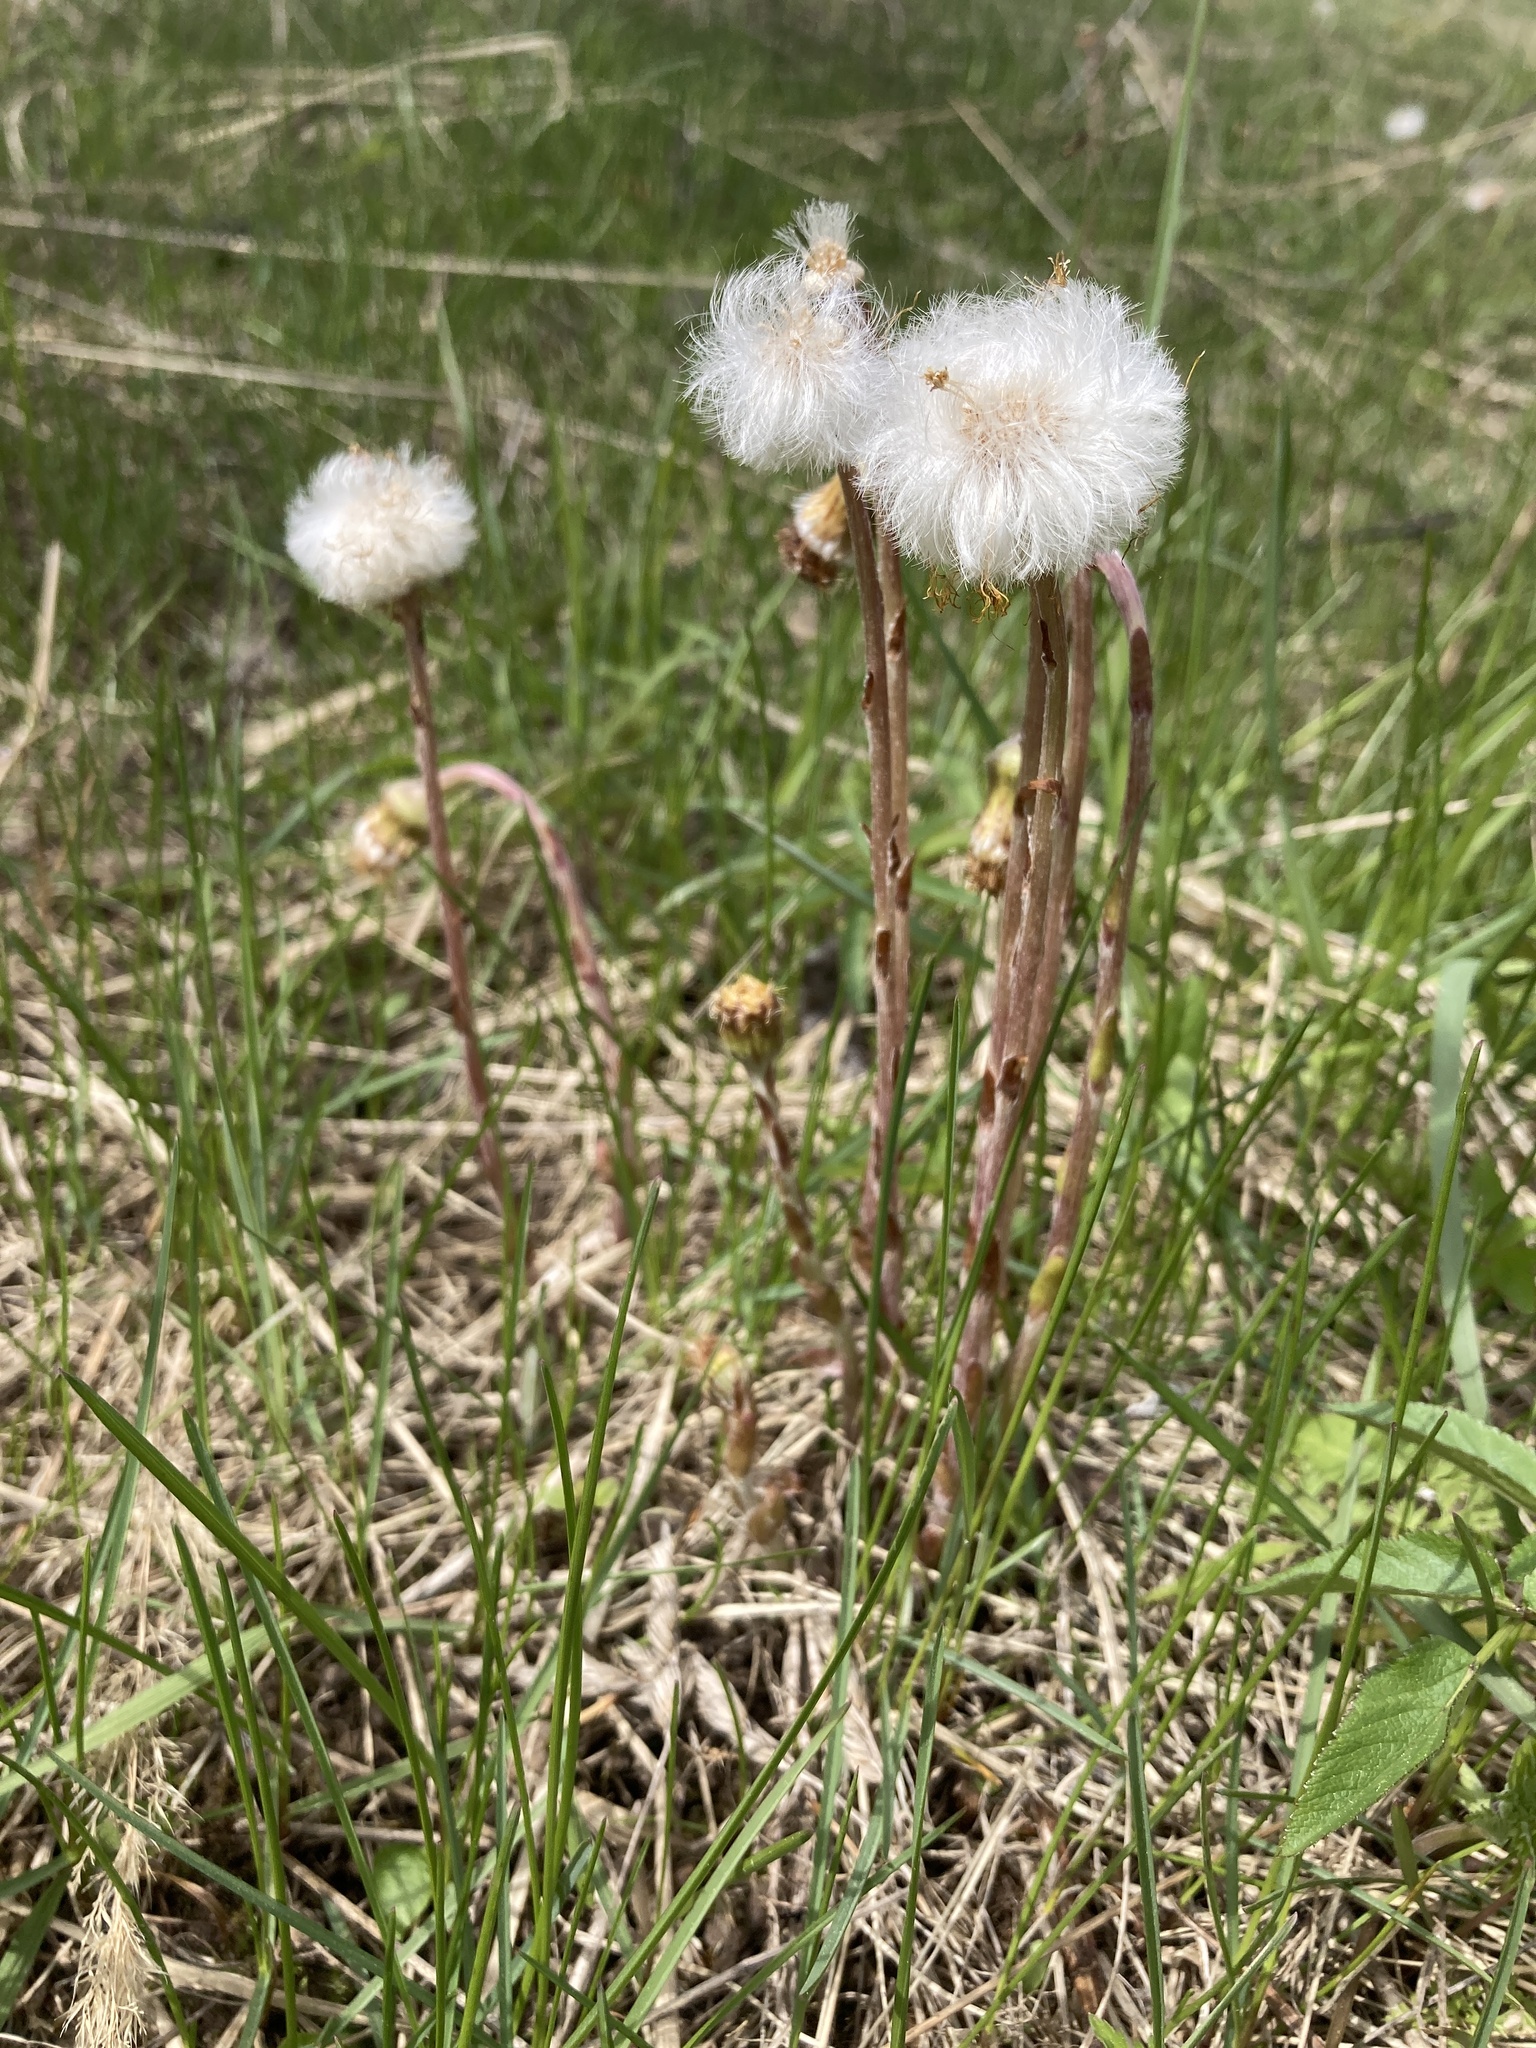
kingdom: Plantae
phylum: Tracheophyta
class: Magnoliopsida
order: Asterales
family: Asteraceae
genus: Tussilago
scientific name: Tussilago farfara
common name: Coltsfoot
